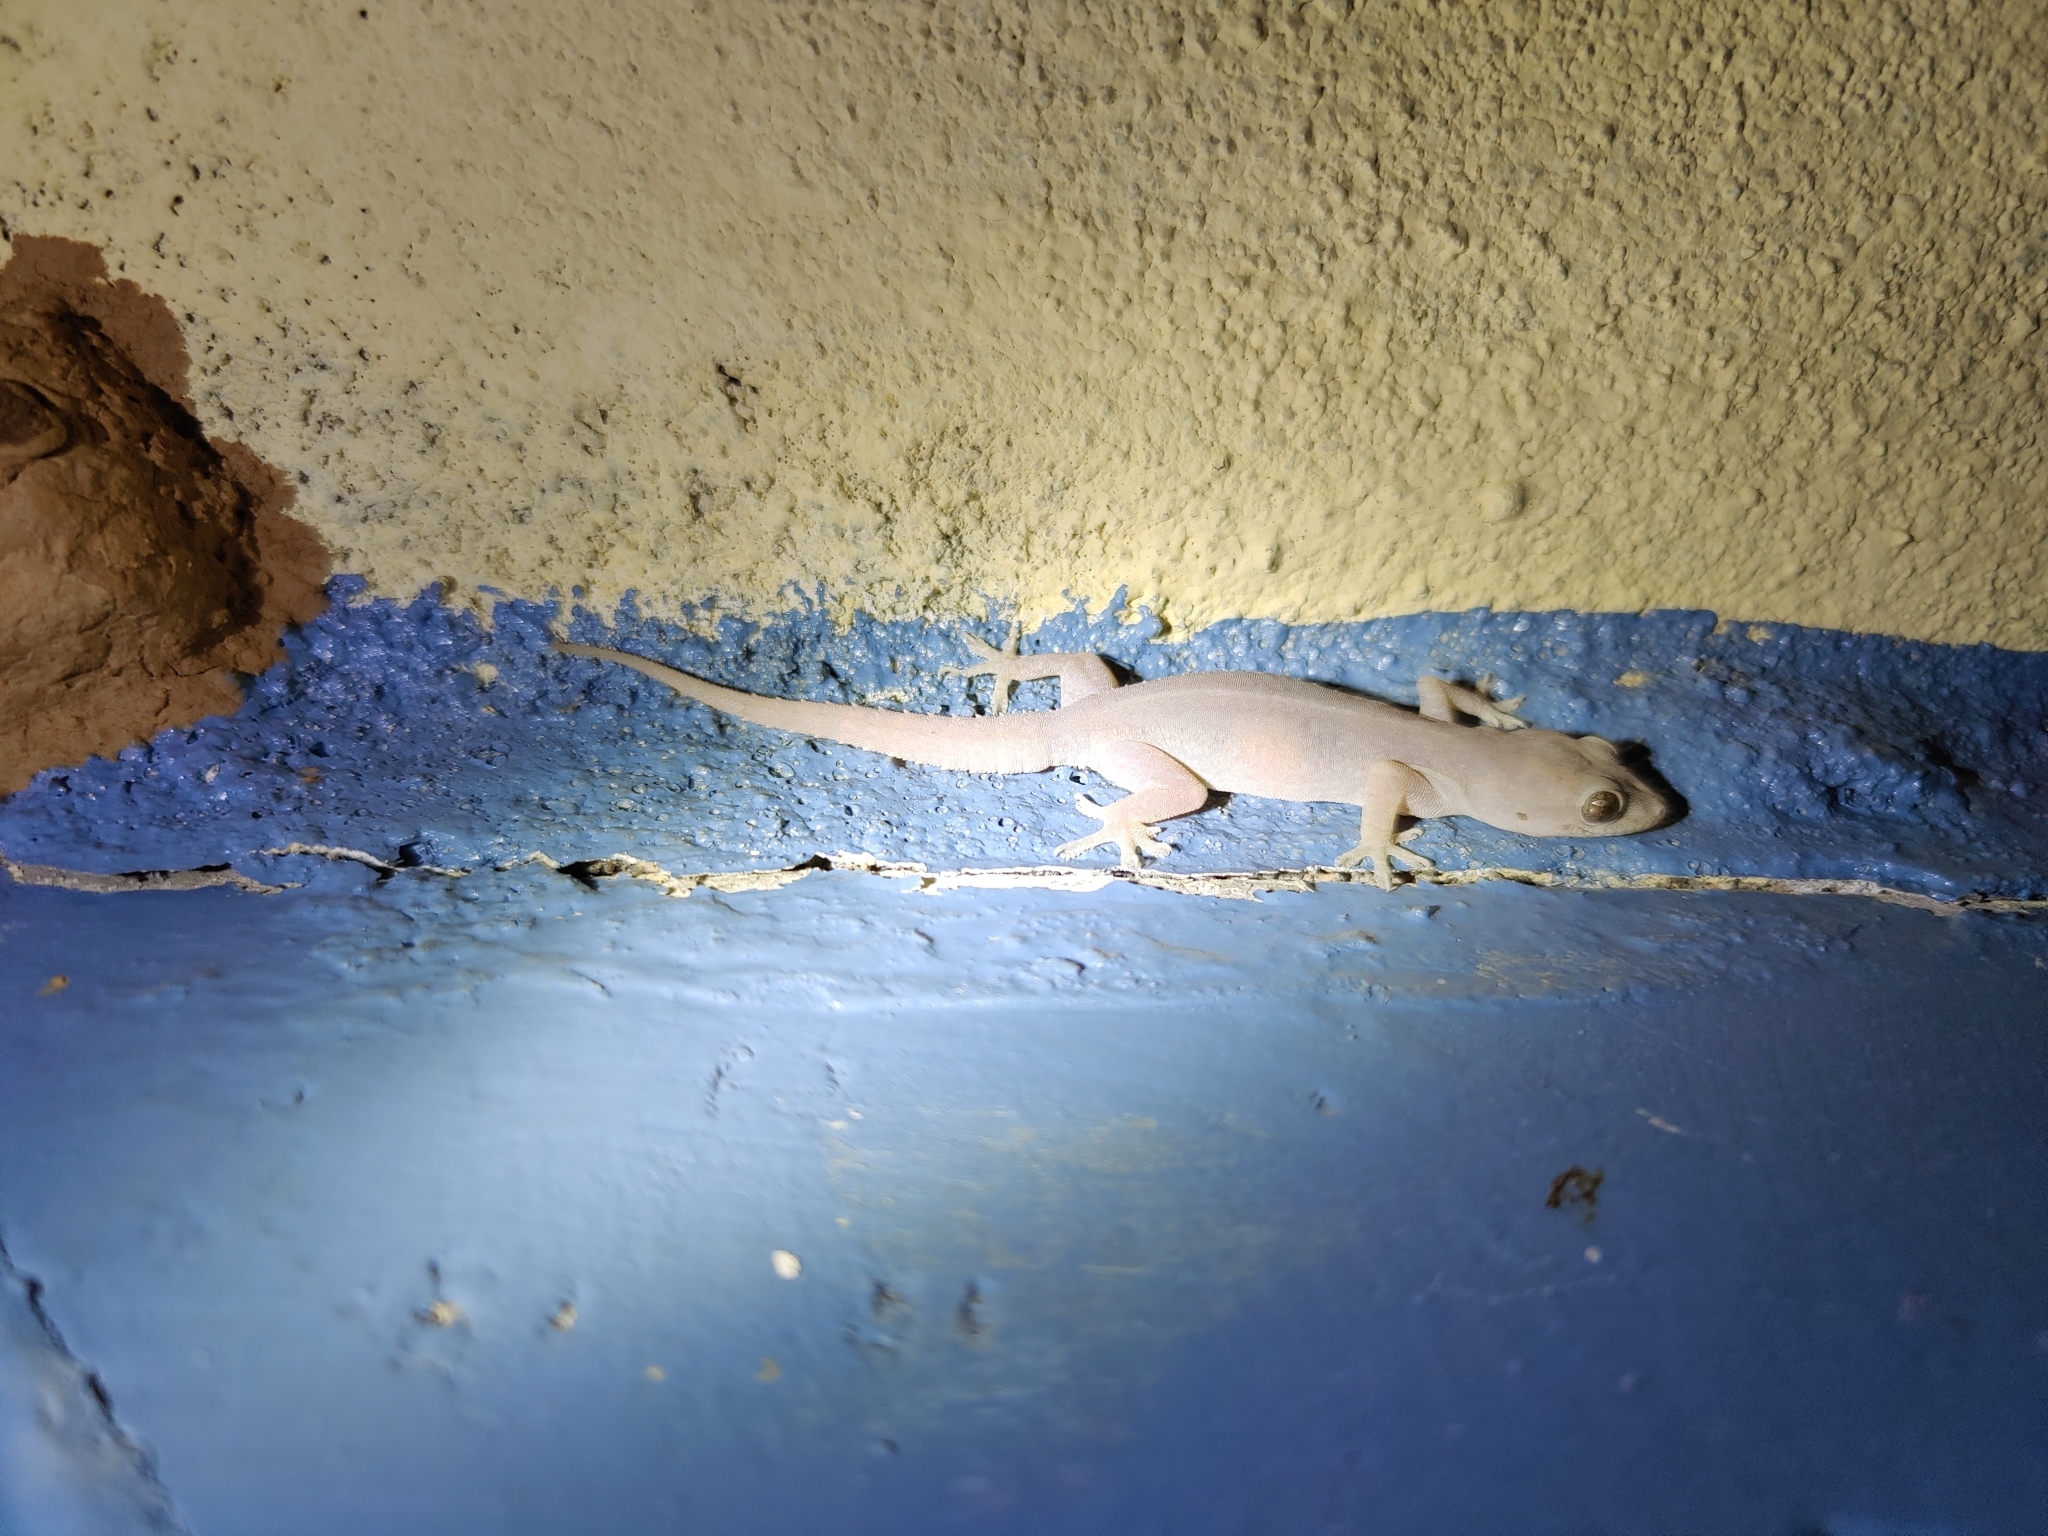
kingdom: Animalia
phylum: Chordata
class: Squamata
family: Gekkonidae
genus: Hemidactylus
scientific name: Hemidactylus frenatus
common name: Common house gecko
